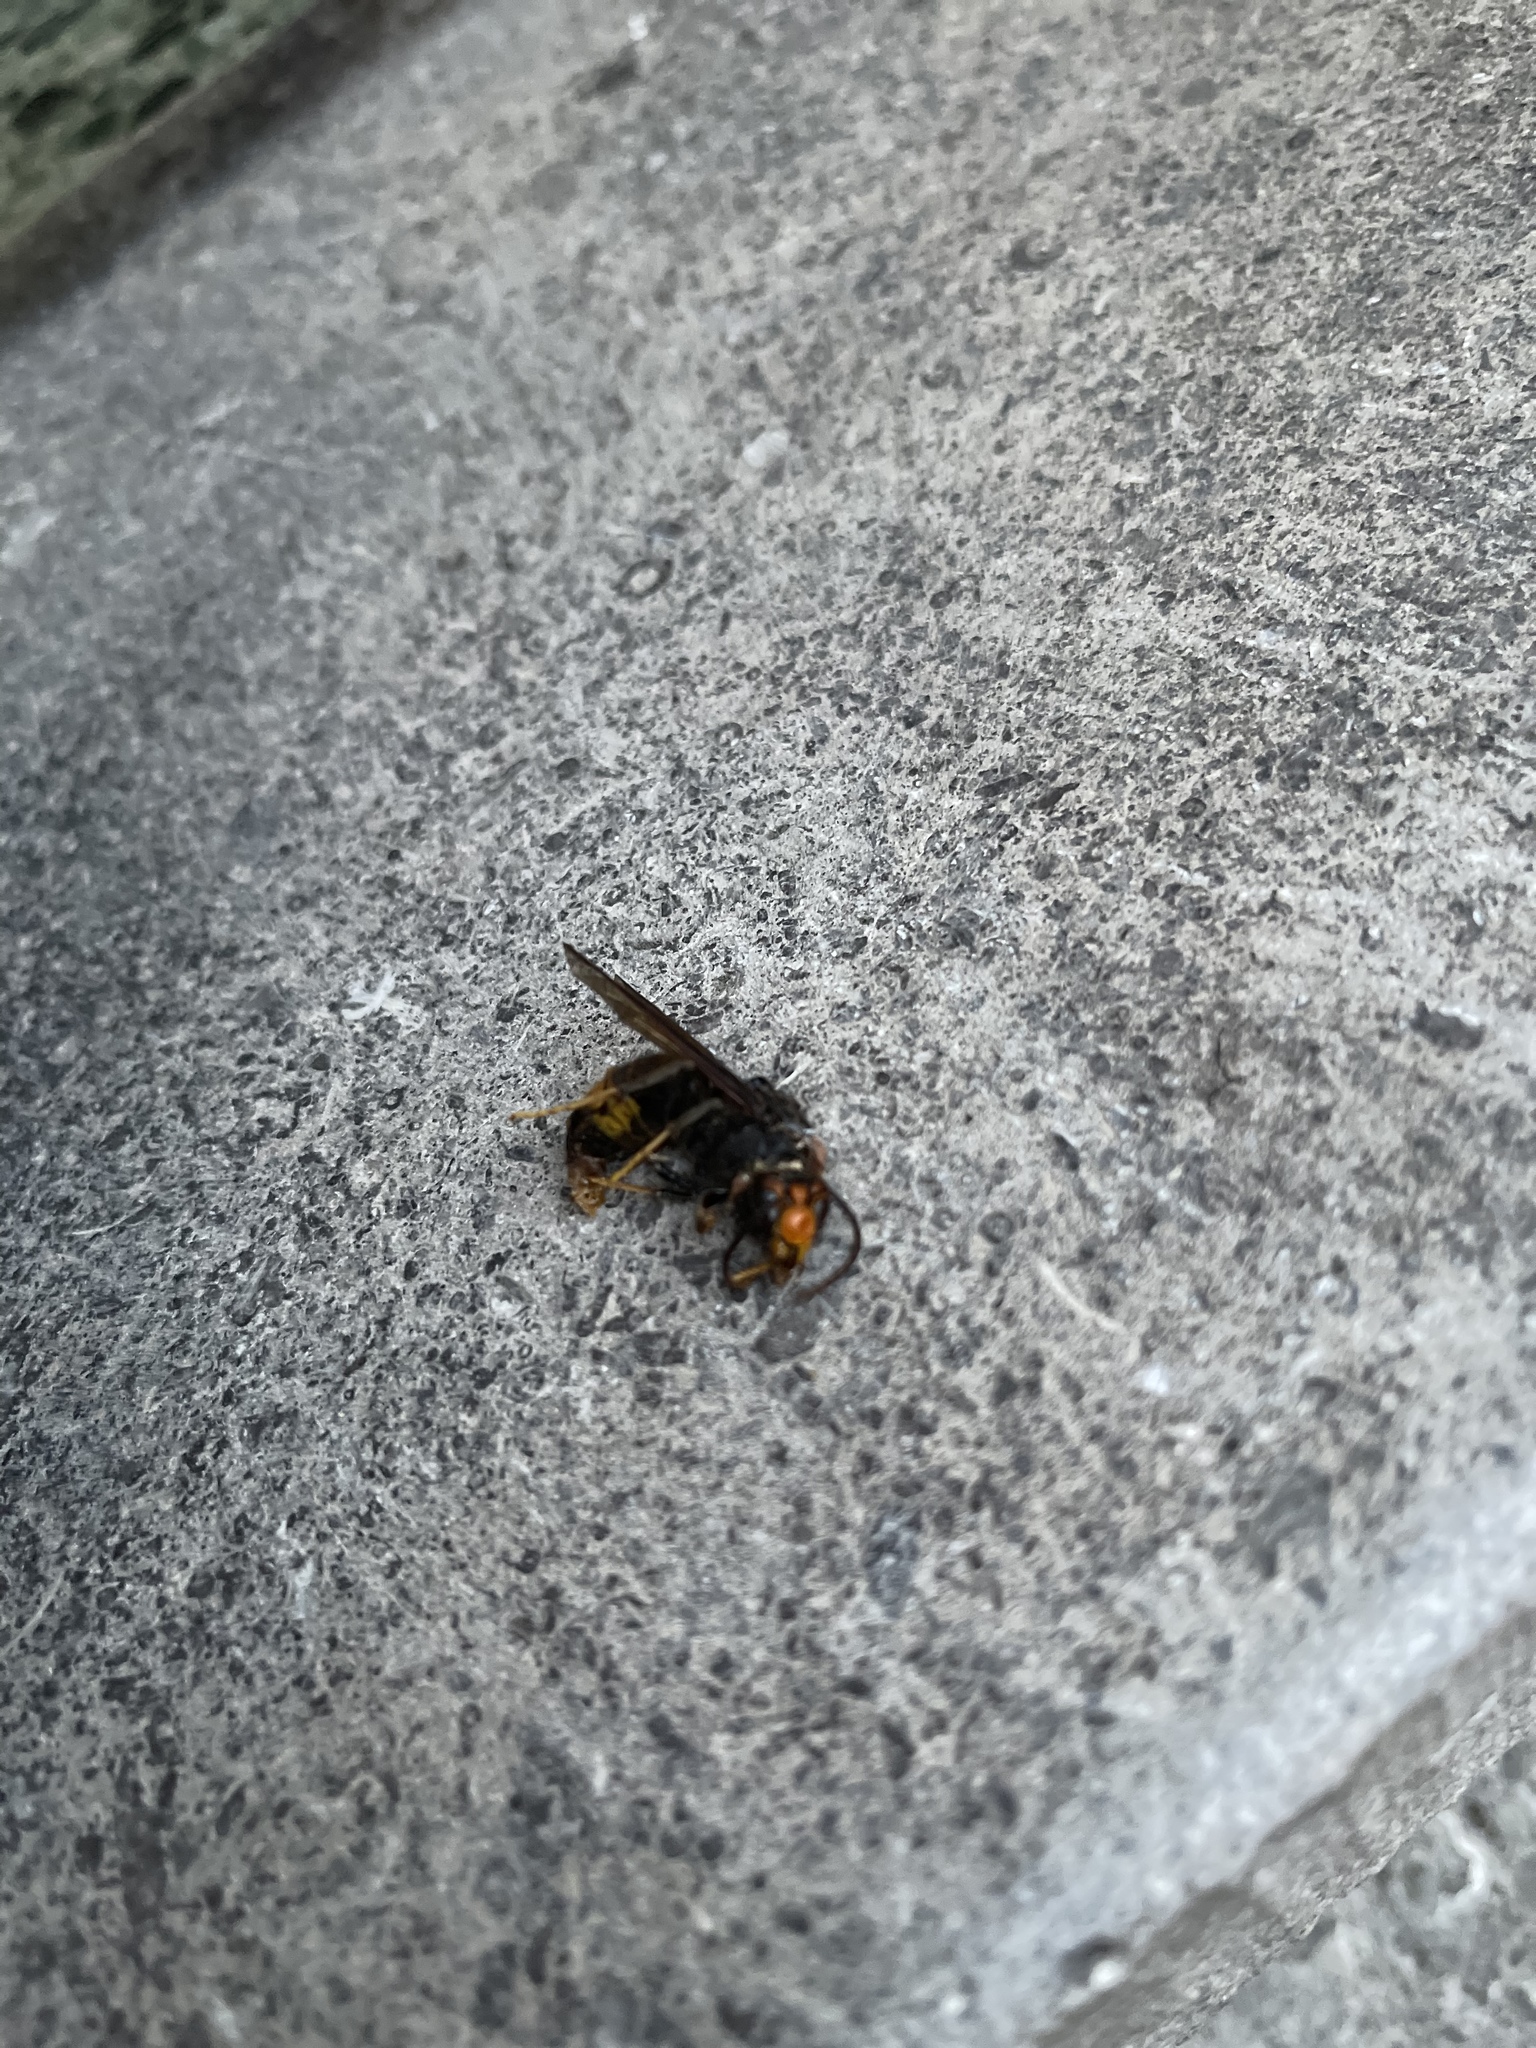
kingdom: Animalia
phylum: Arthropoda
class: Insecta
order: Hymenoptera
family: Vespidae
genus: Vespa
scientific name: Vespa velutina
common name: Asian hornet
